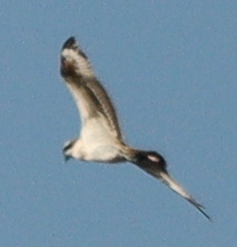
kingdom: Animalia
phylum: Chordata
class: Aves
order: Accipitriformes
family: Pandionidae
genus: Pandion
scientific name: Pandion haliaetus
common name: Osprey
